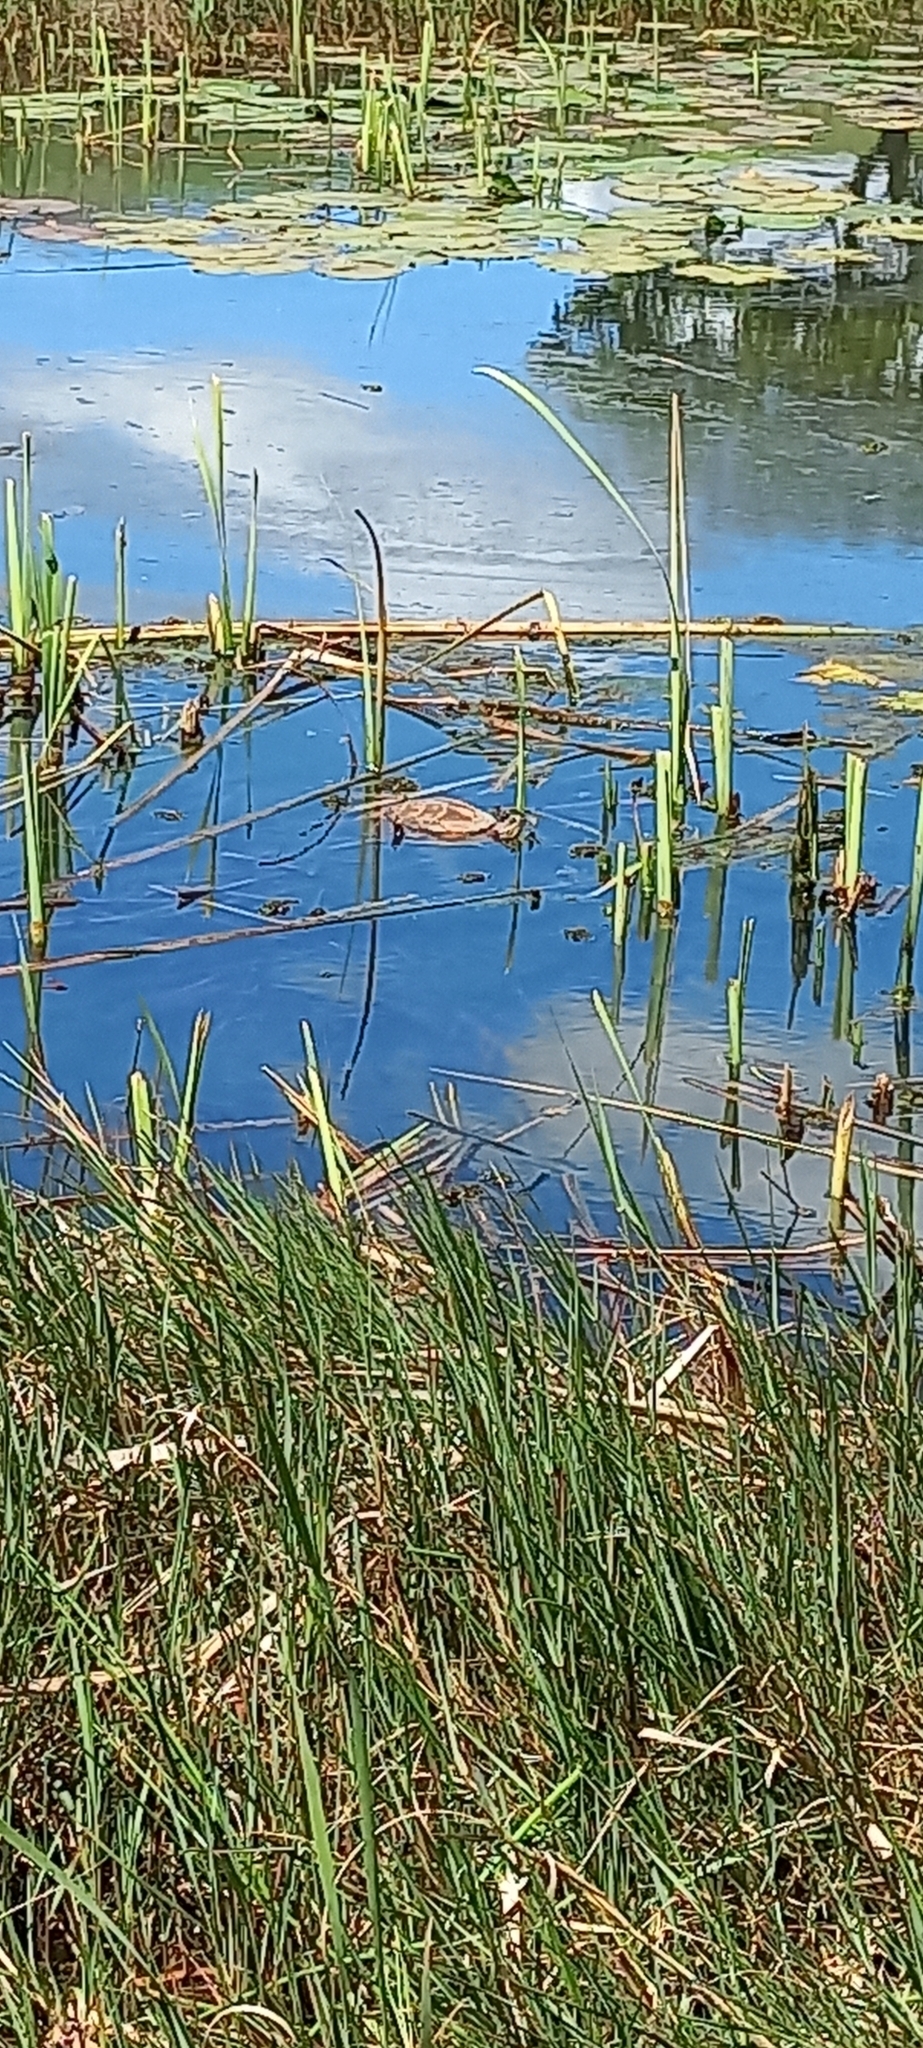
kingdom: Animalia
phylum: Chordata
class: Testudines
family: Pelomedusidae
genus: Pelomedusa
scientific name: Pelomedusa galeata
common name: South african helmeted terrapin
